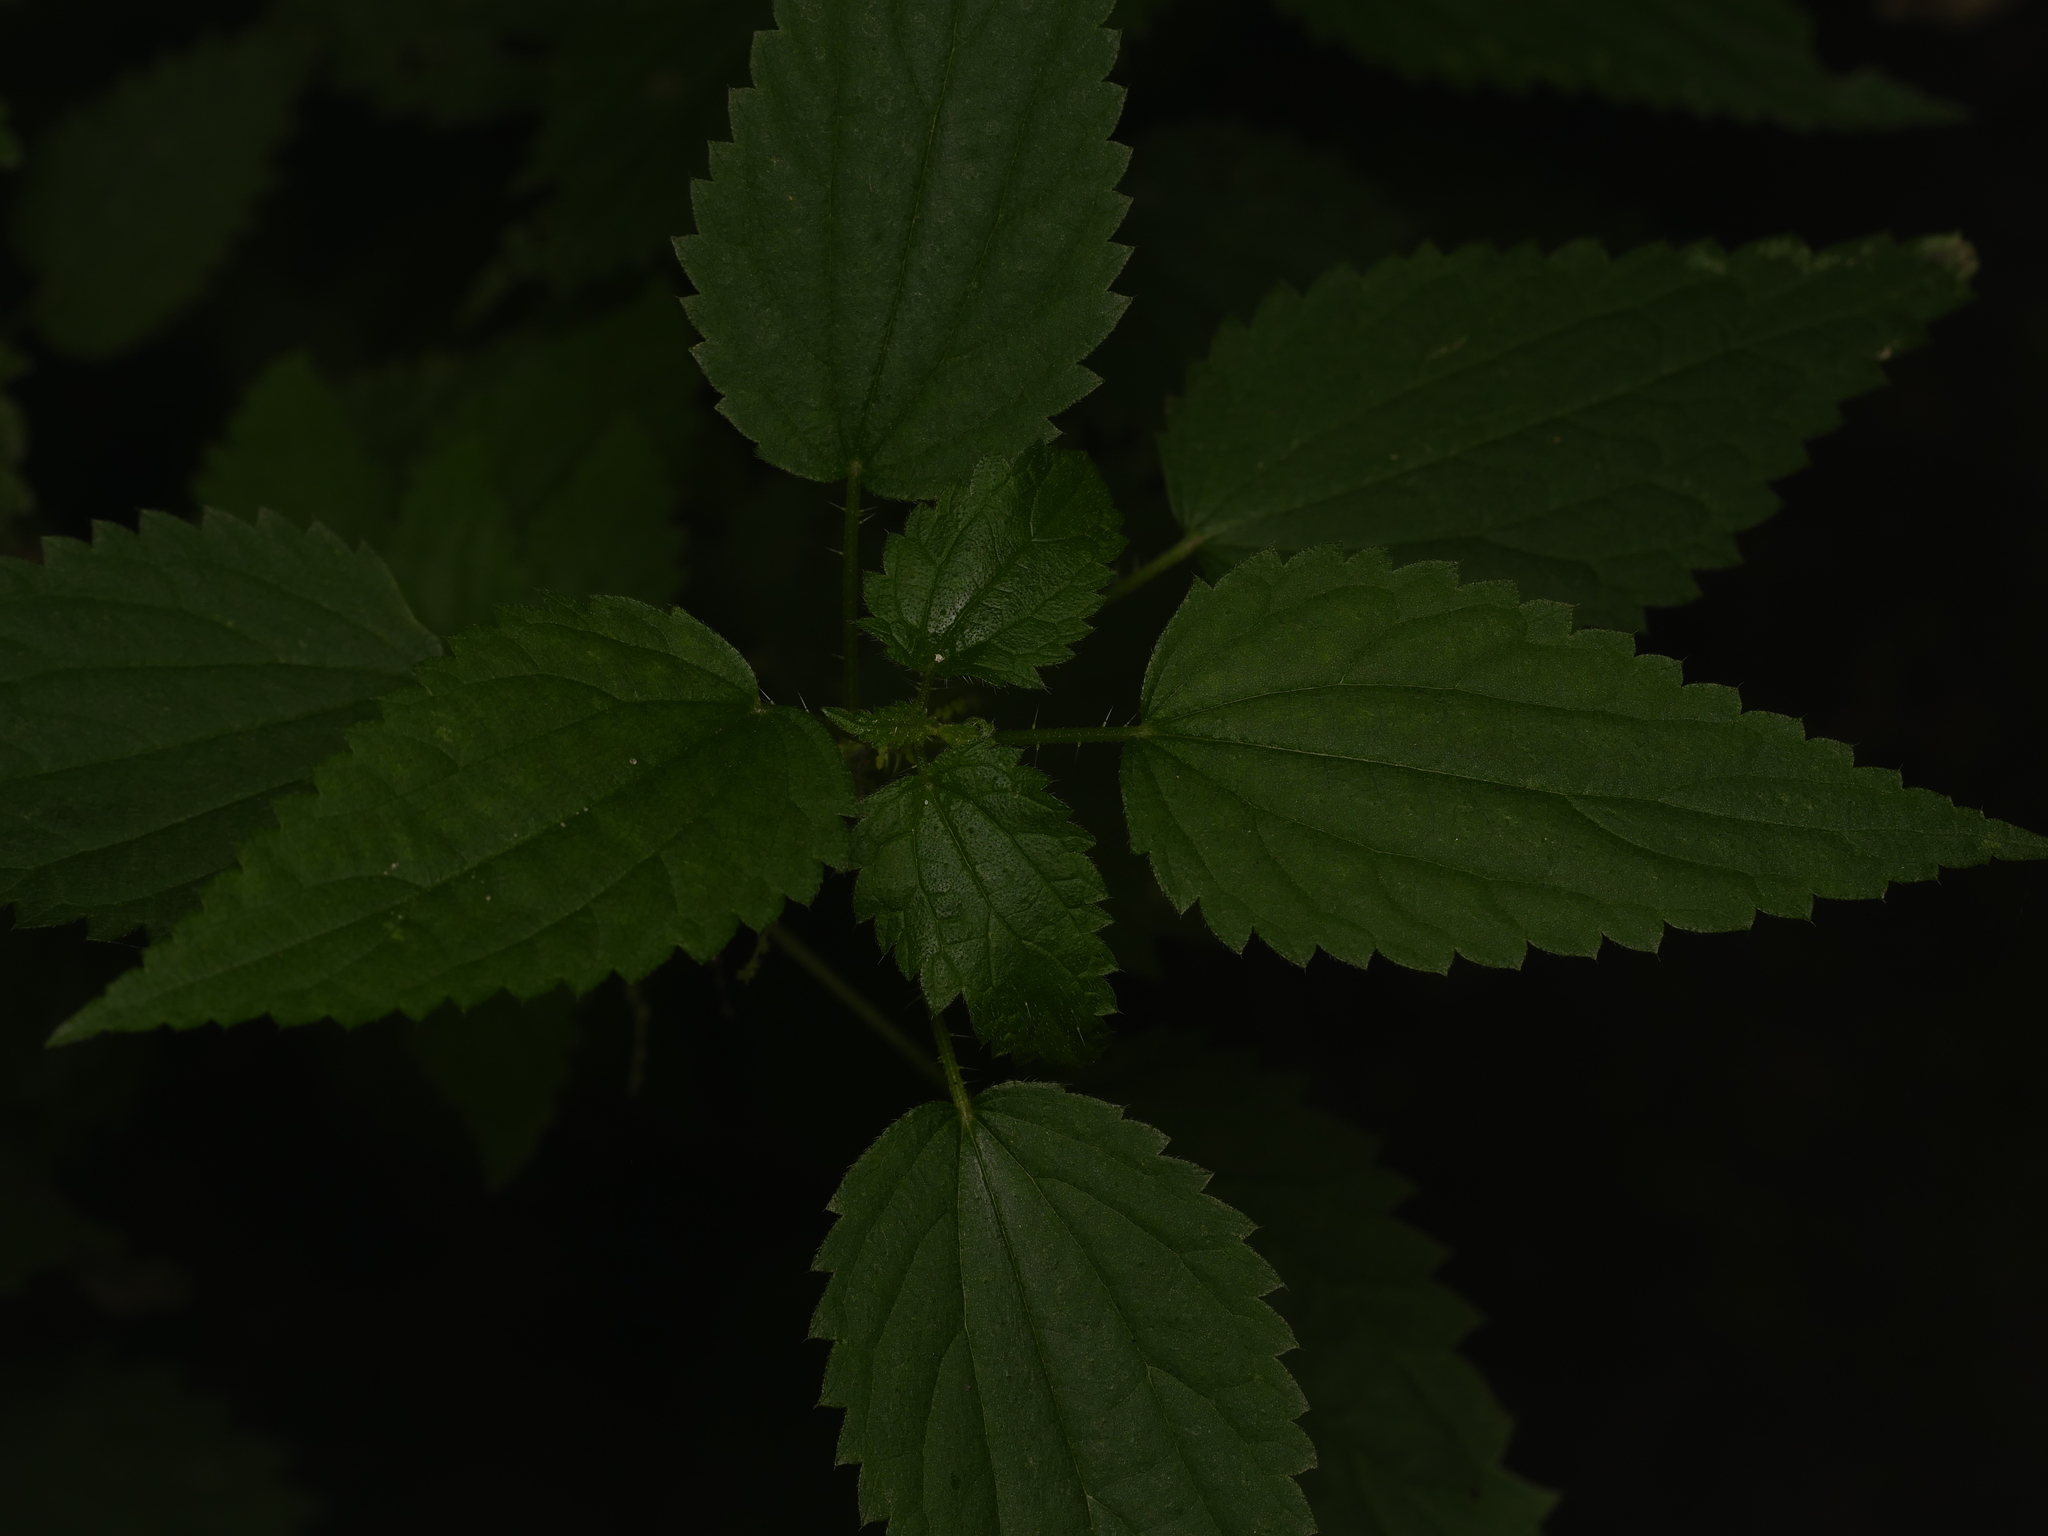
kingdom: Plantae
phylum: Tracheophyta
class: Magnoliopsida
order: Rosales
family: Urticaceae
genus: Urtica
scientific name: Urtica dioica
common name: Common nettle
